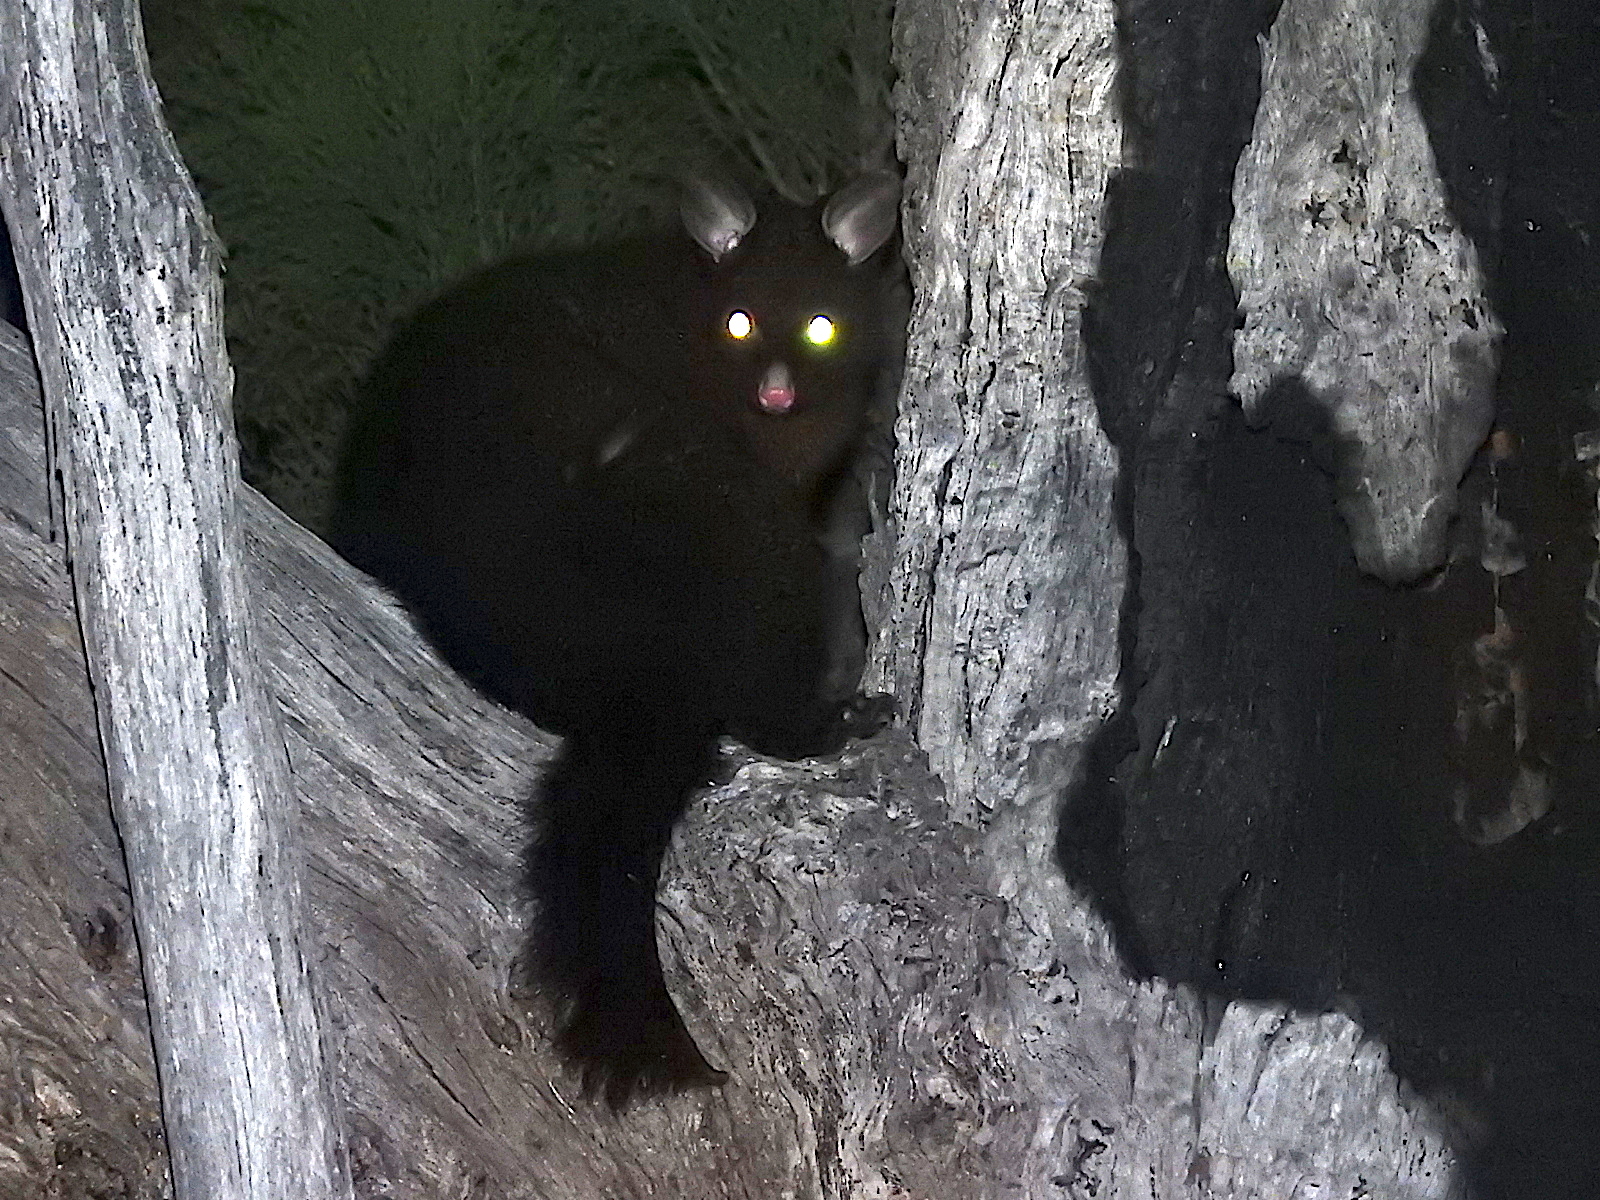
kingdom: Animalia
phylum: Chordata
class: Mammalia
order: Diprotodontia
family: Phalangeridae
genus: Trichosurus
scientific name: Trichosurus vulpecula
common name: Common brushtail
